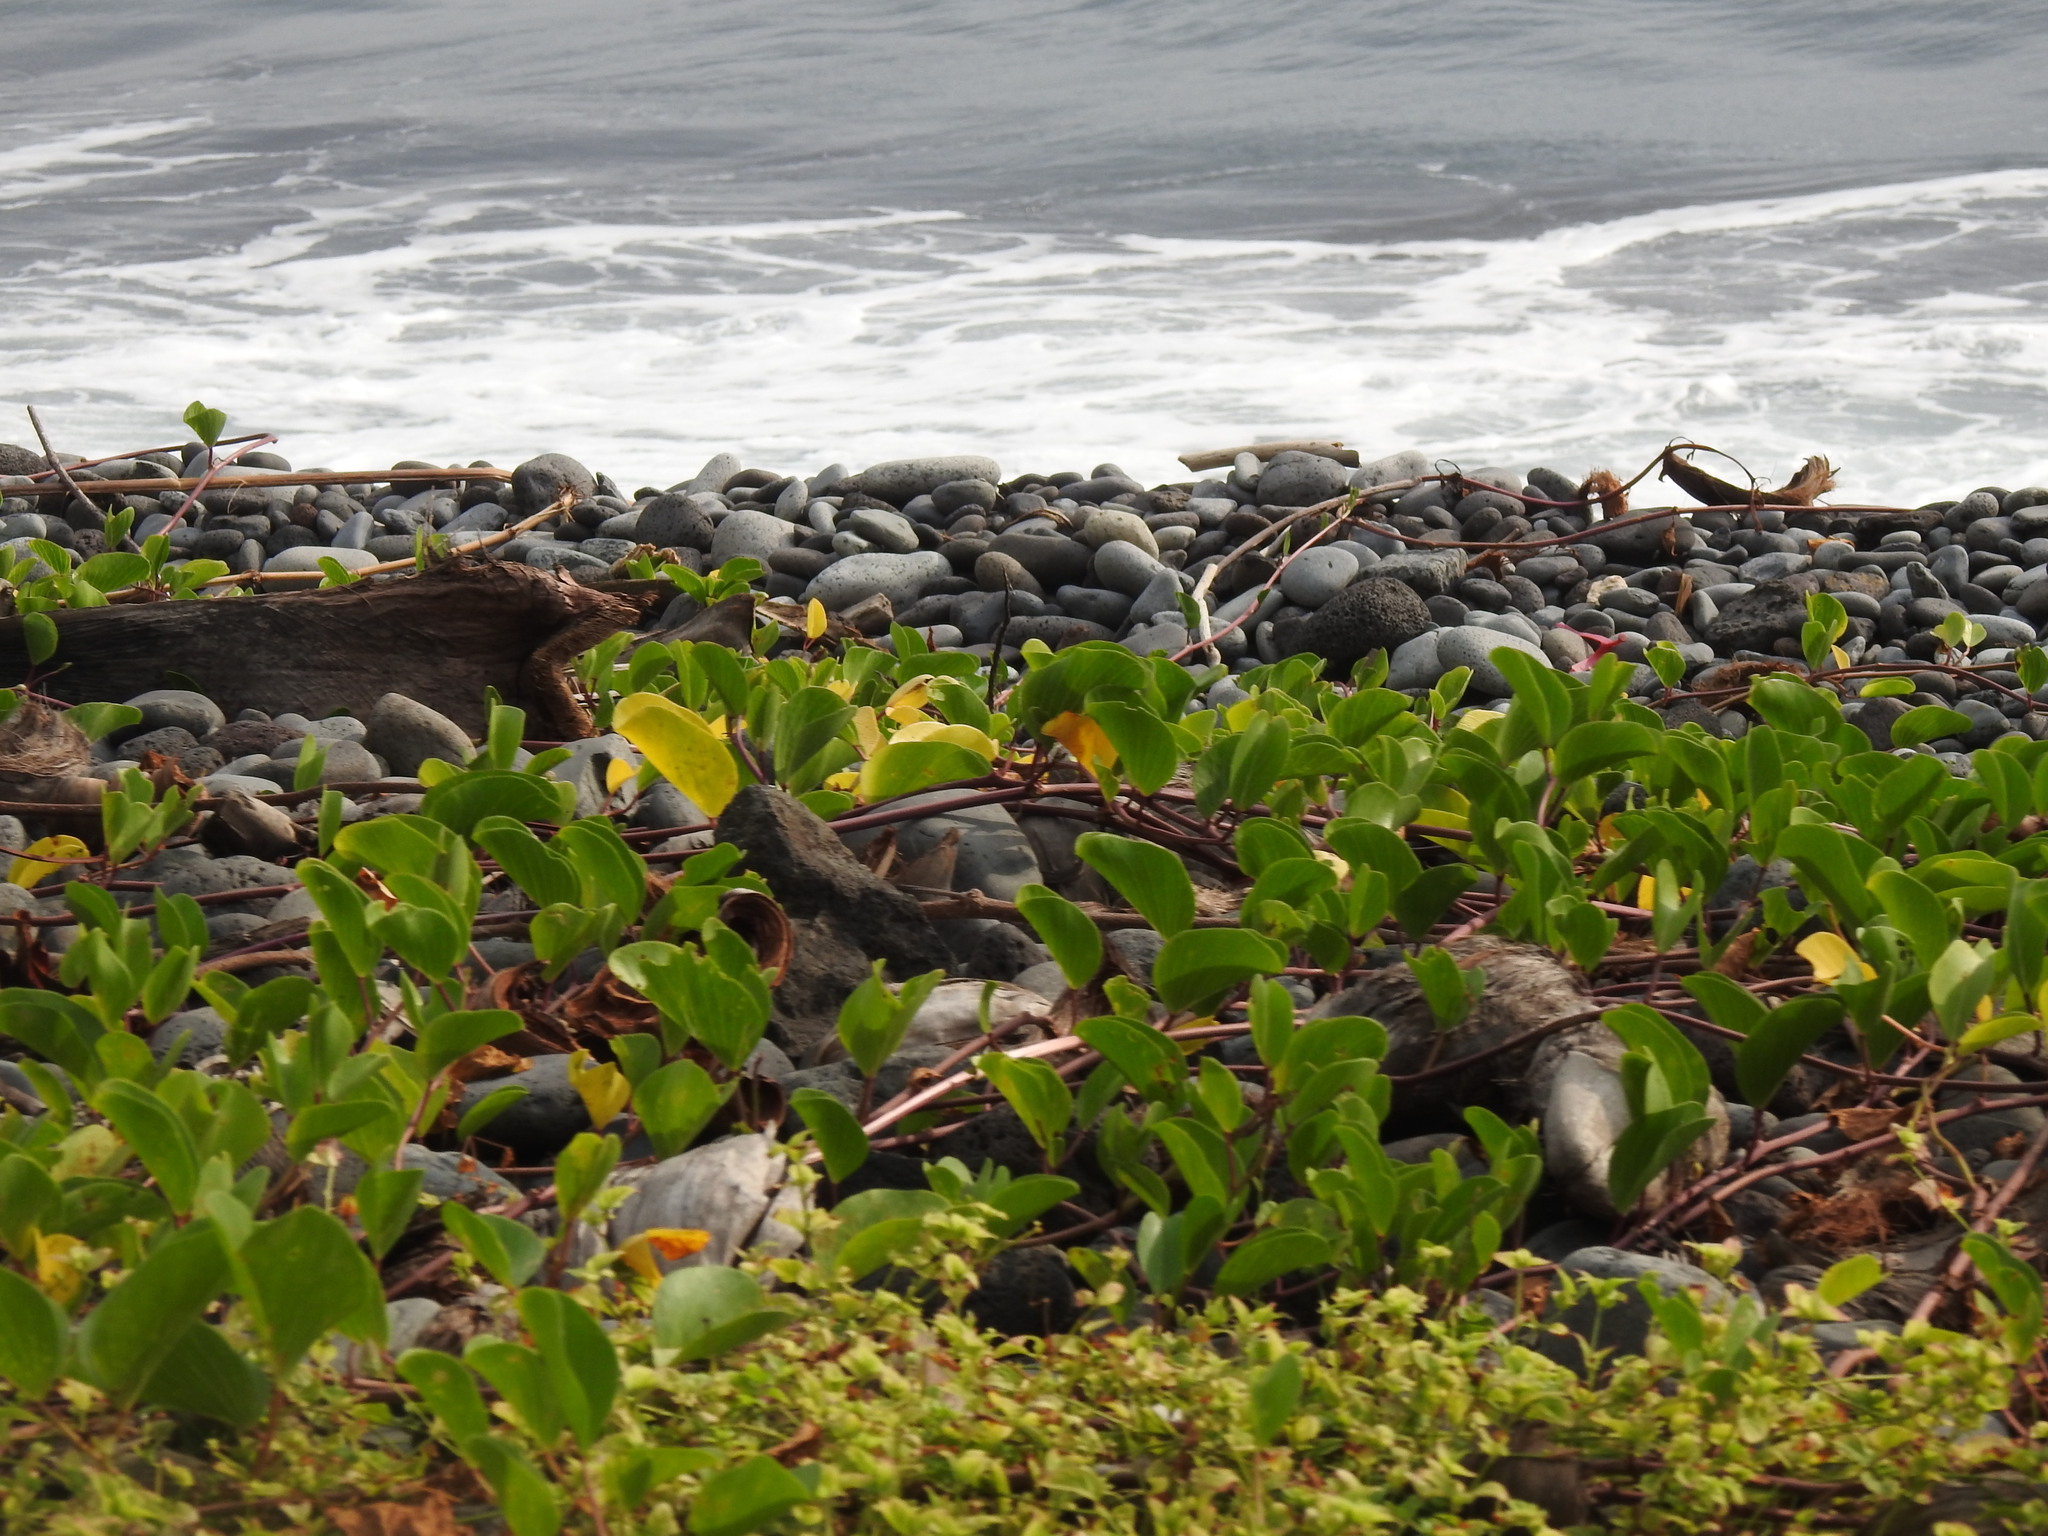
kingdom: Plantae
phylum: Tracheophyta
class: Magnoliopsida
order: Solanales
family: Convolvulaceae
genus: Ipomoea
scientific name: Ipomoea pes-caprae
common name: Beach morning glory
